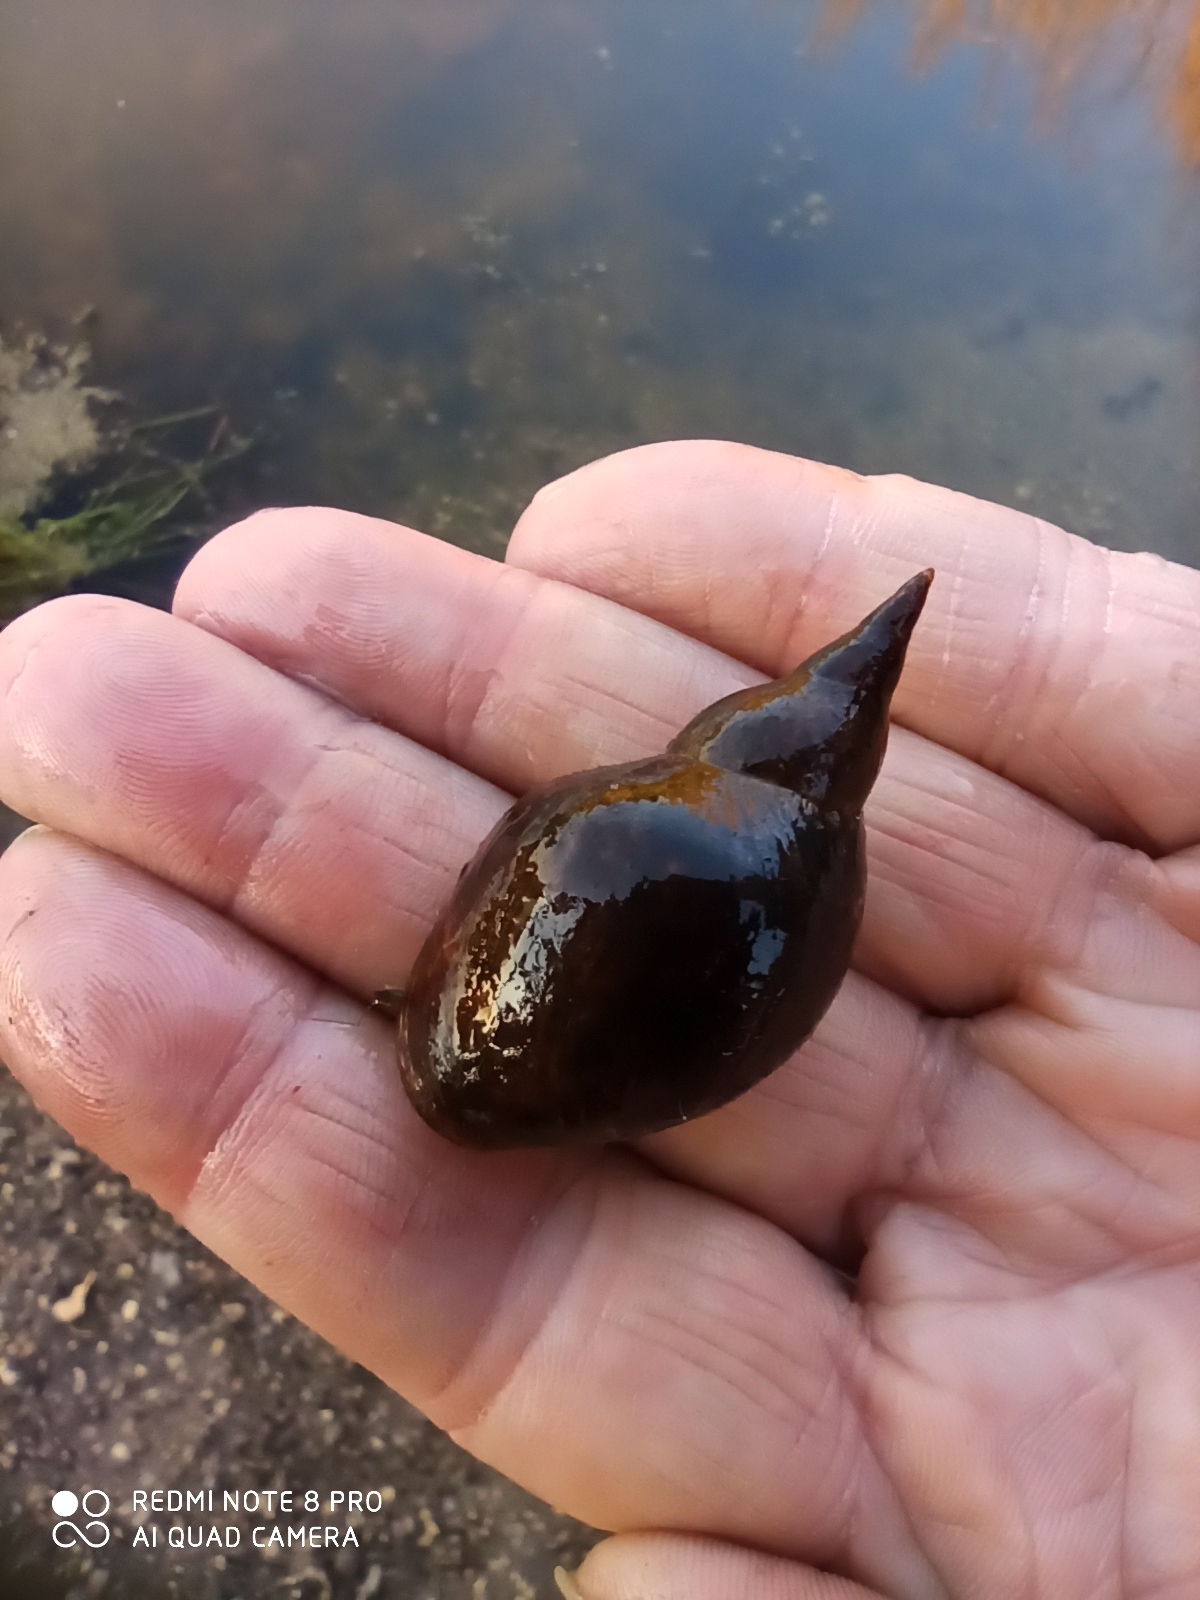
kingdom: Animalia
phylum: Mollusca
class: Gastropoda
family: Lymnaeidae
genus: Lymnaea
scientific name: Lymnaea stagnalis
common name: Great pond snail
